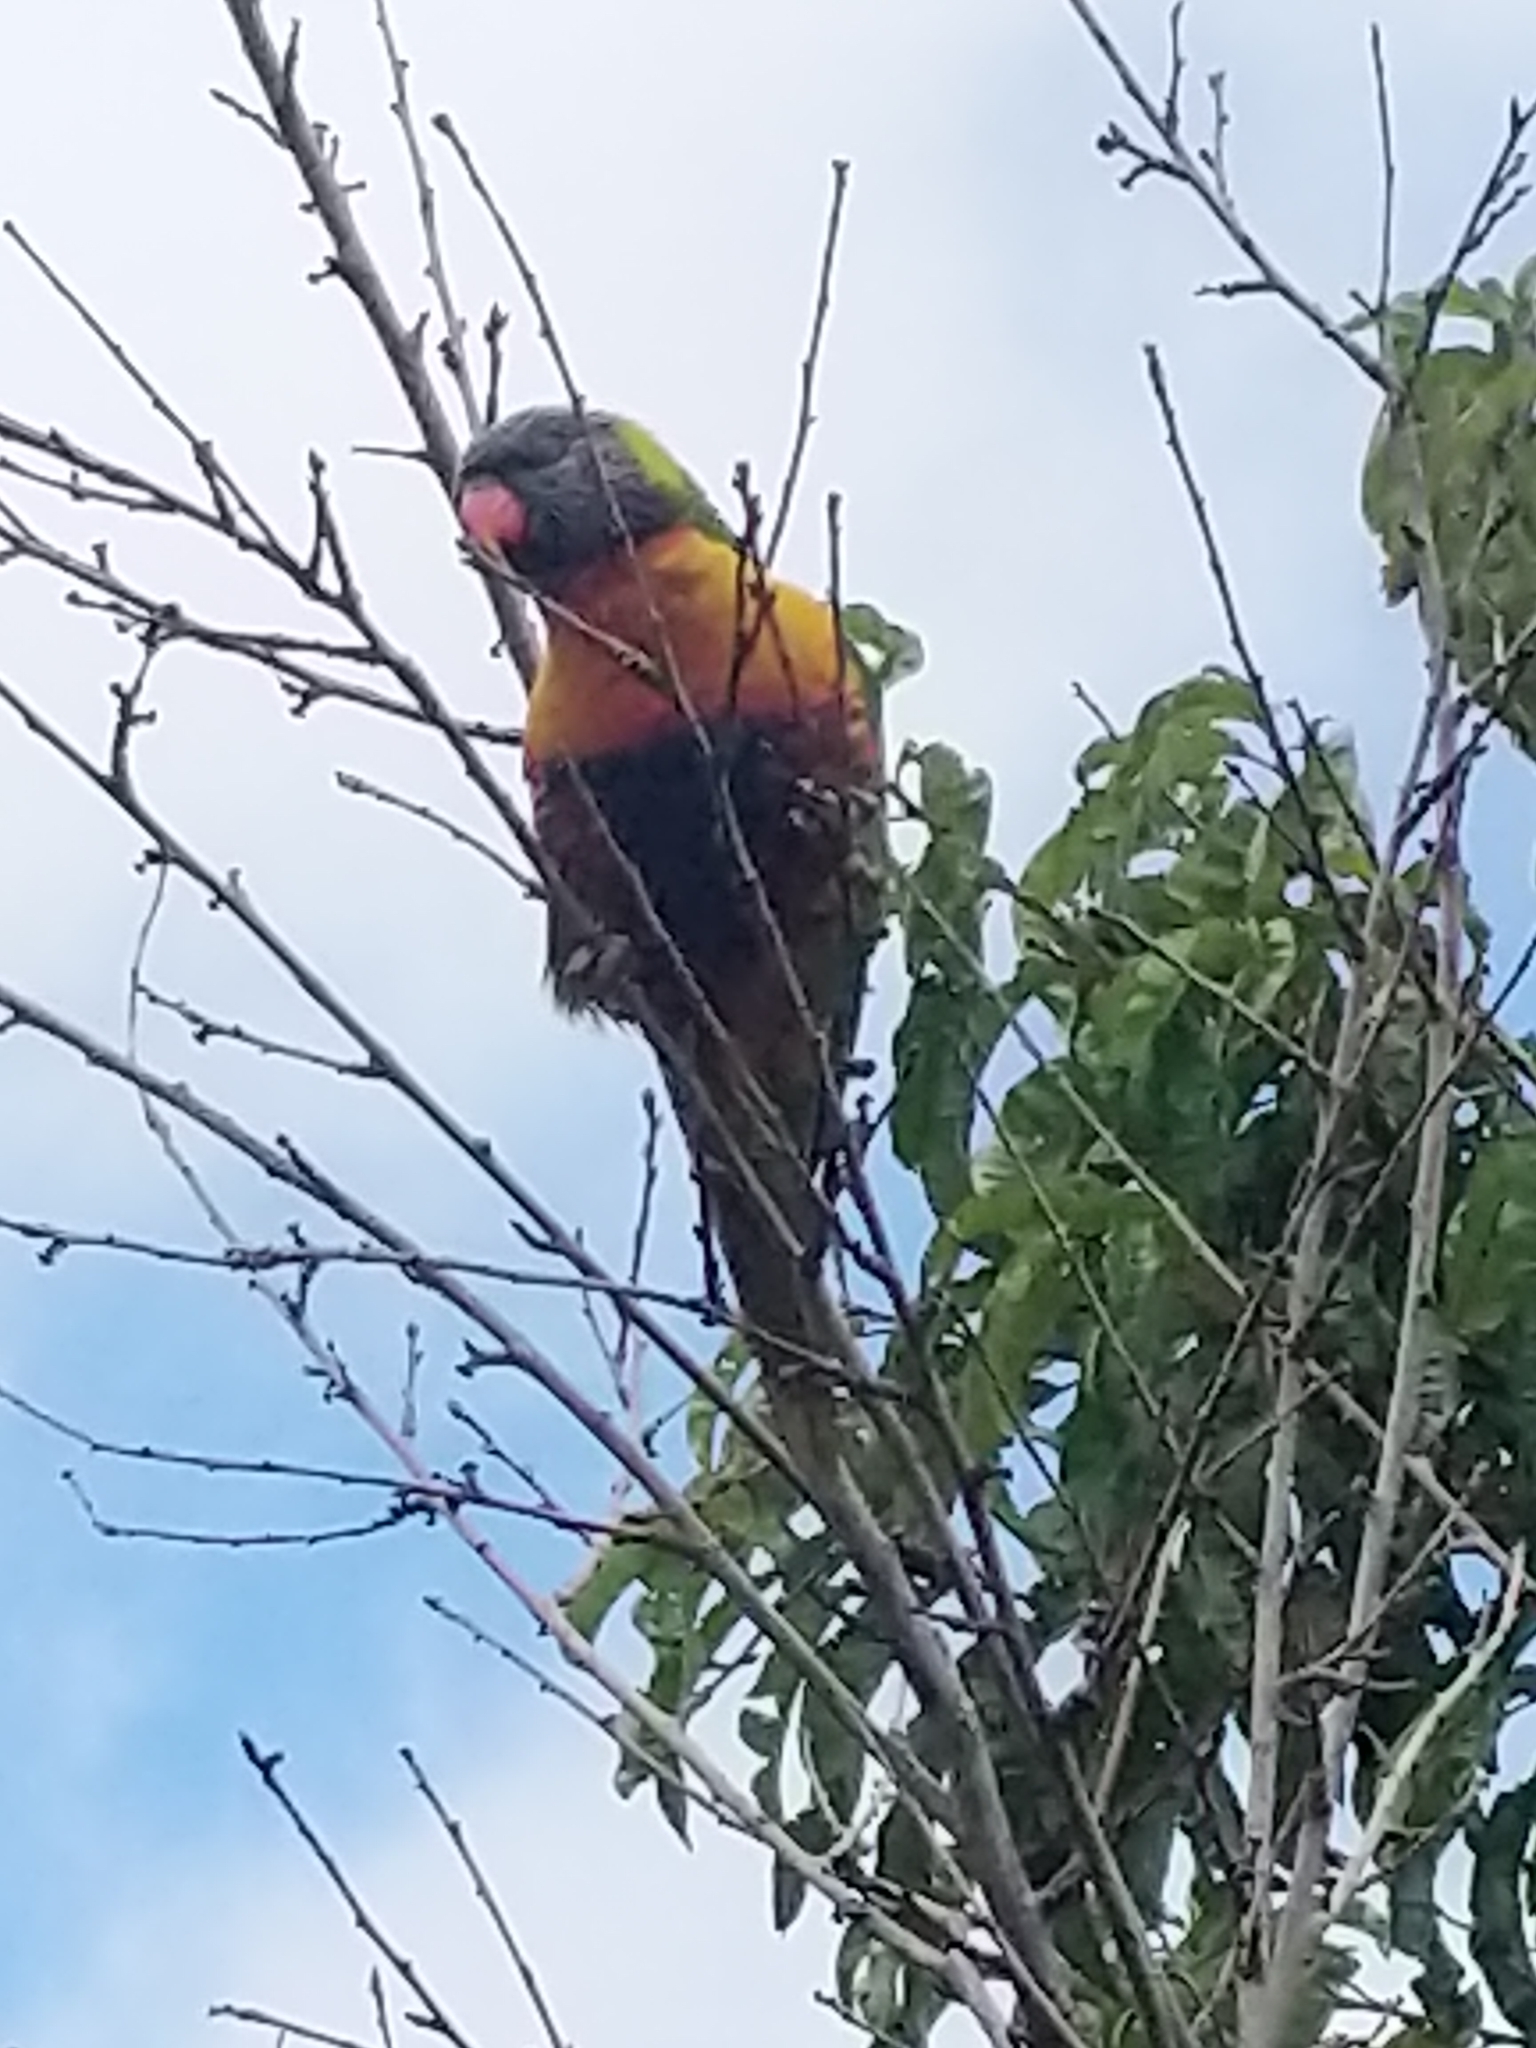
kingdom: Animalia
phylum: Chordata
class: Aves
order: Psittaciformes
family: Psittacidae
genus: Trichoglossus
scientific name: Trichoglossus haematodus
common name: Coconut lorikeet
